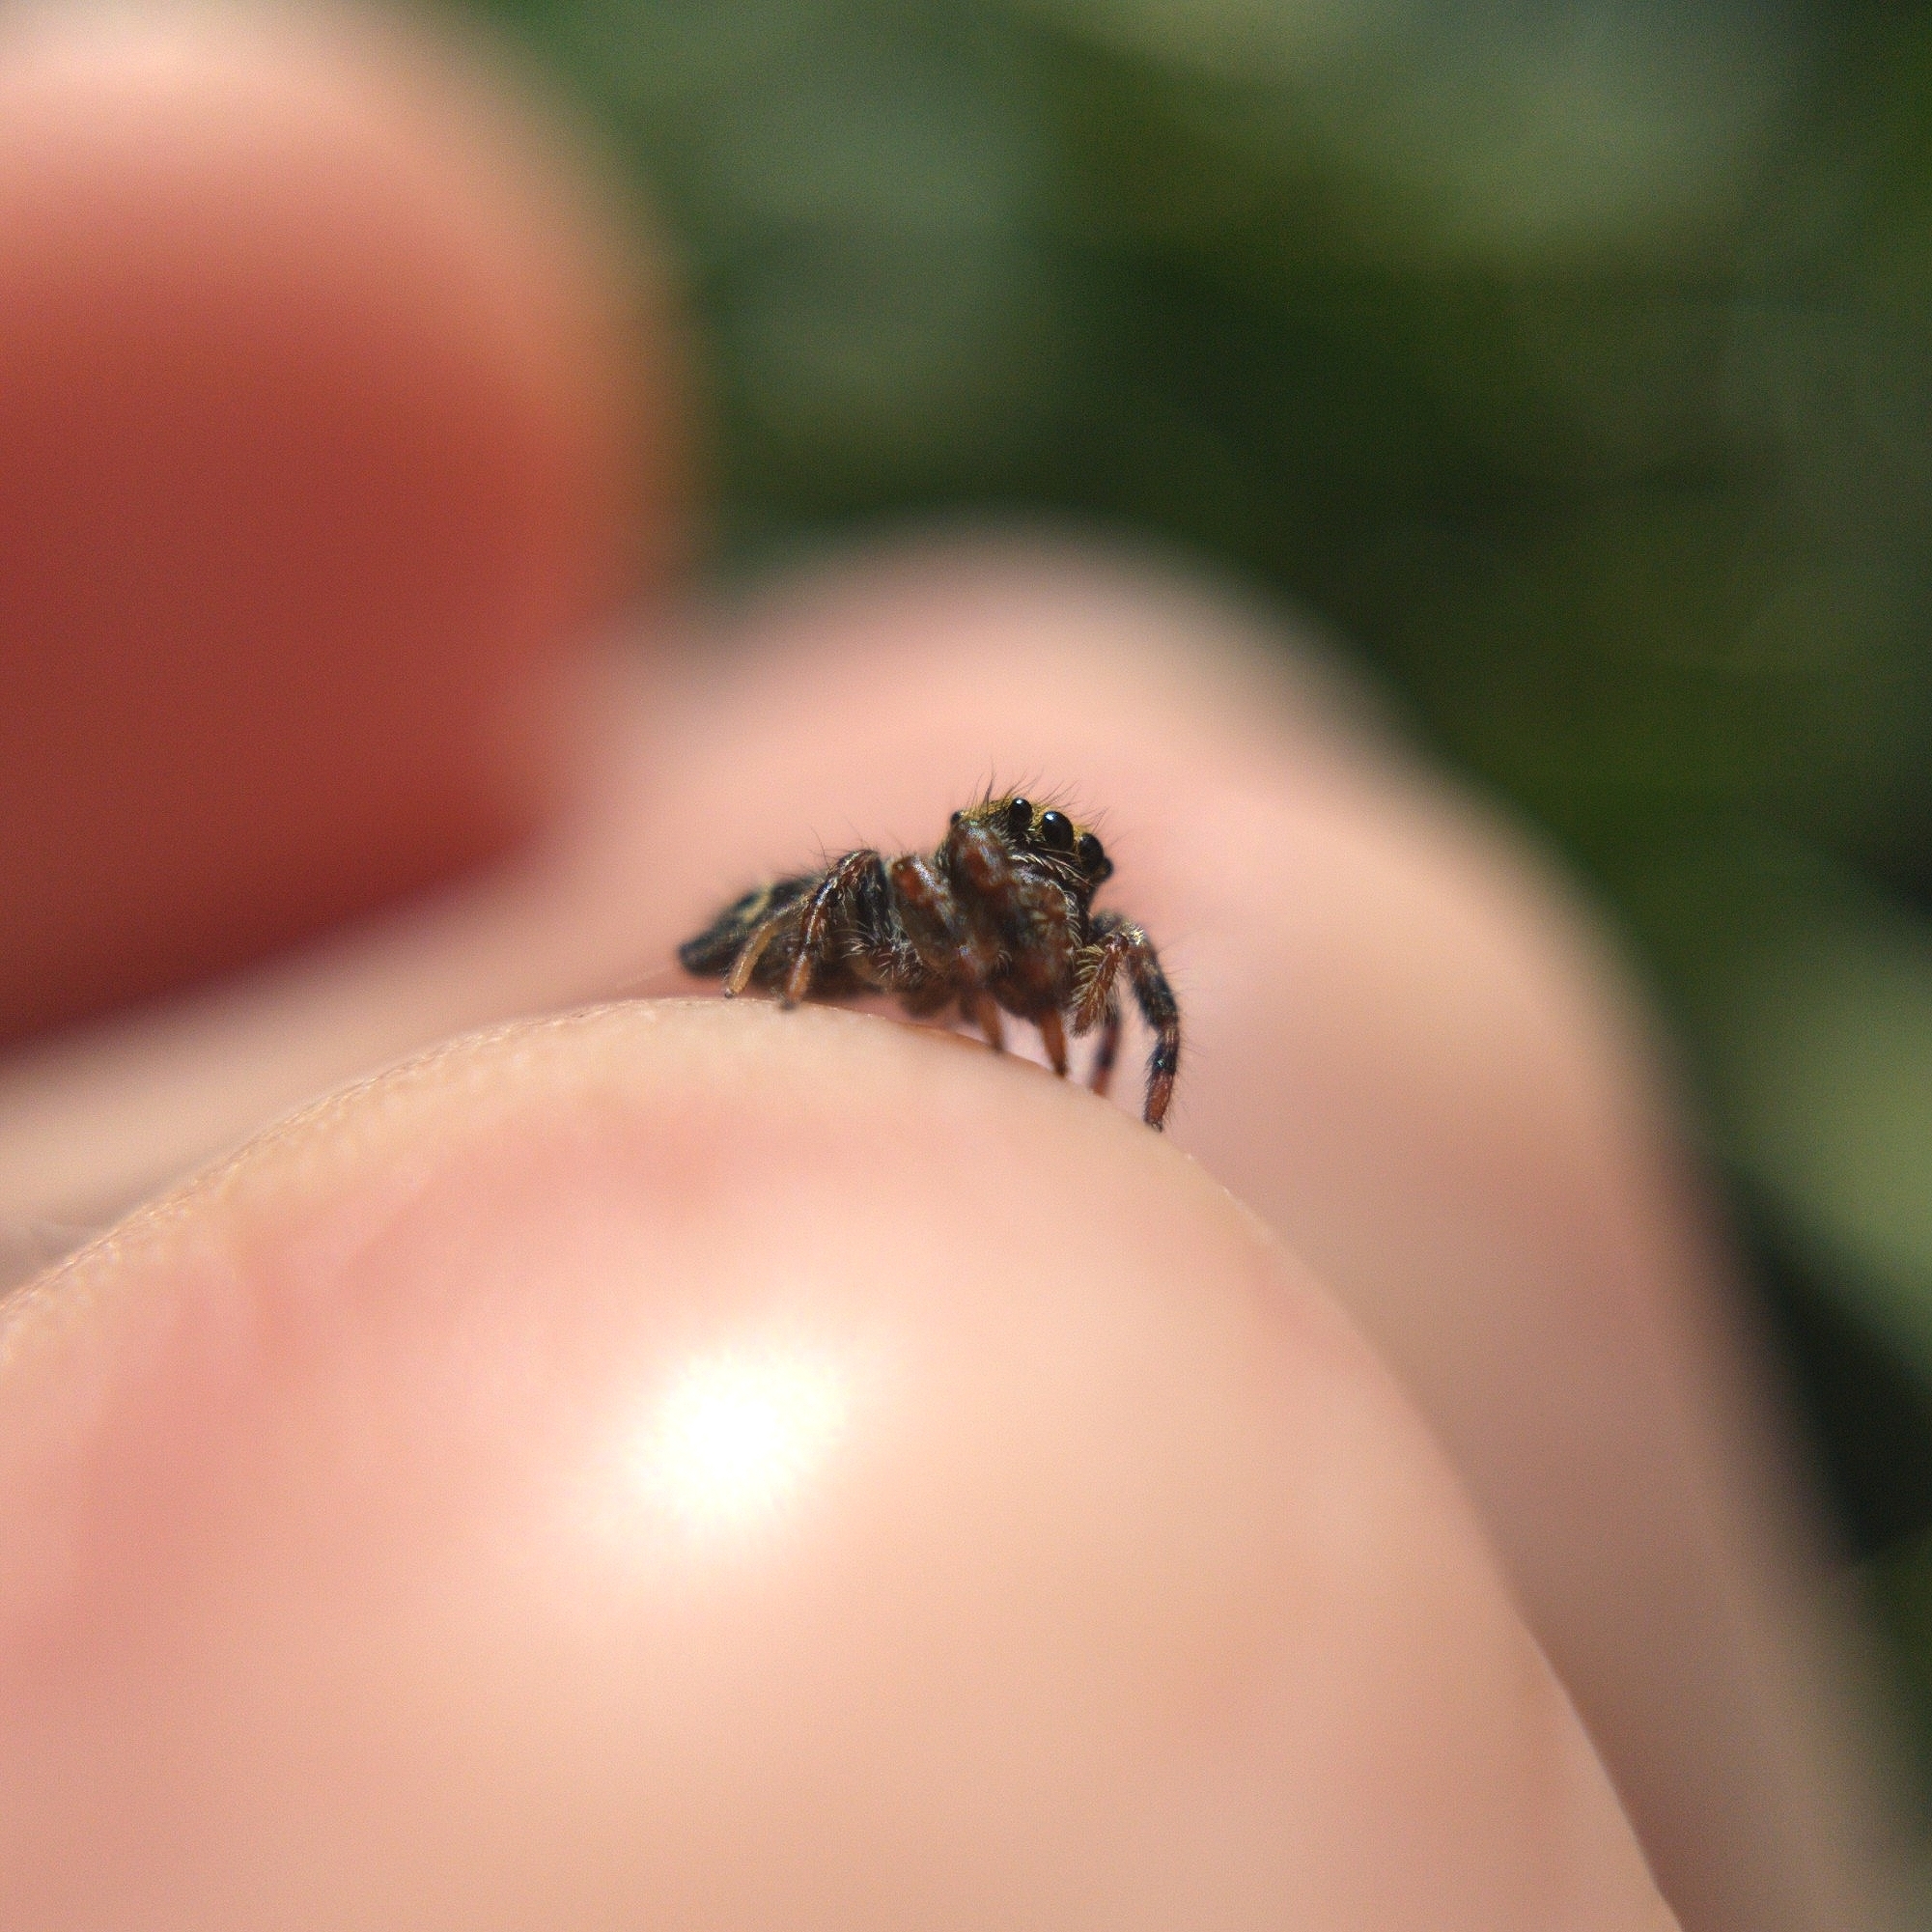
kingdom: Animalia
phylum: Arthropoda
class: Arachnida
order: Araneae
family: Salticidae
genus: Phidippus
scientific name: Phidippus audax
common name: Bold jumper
